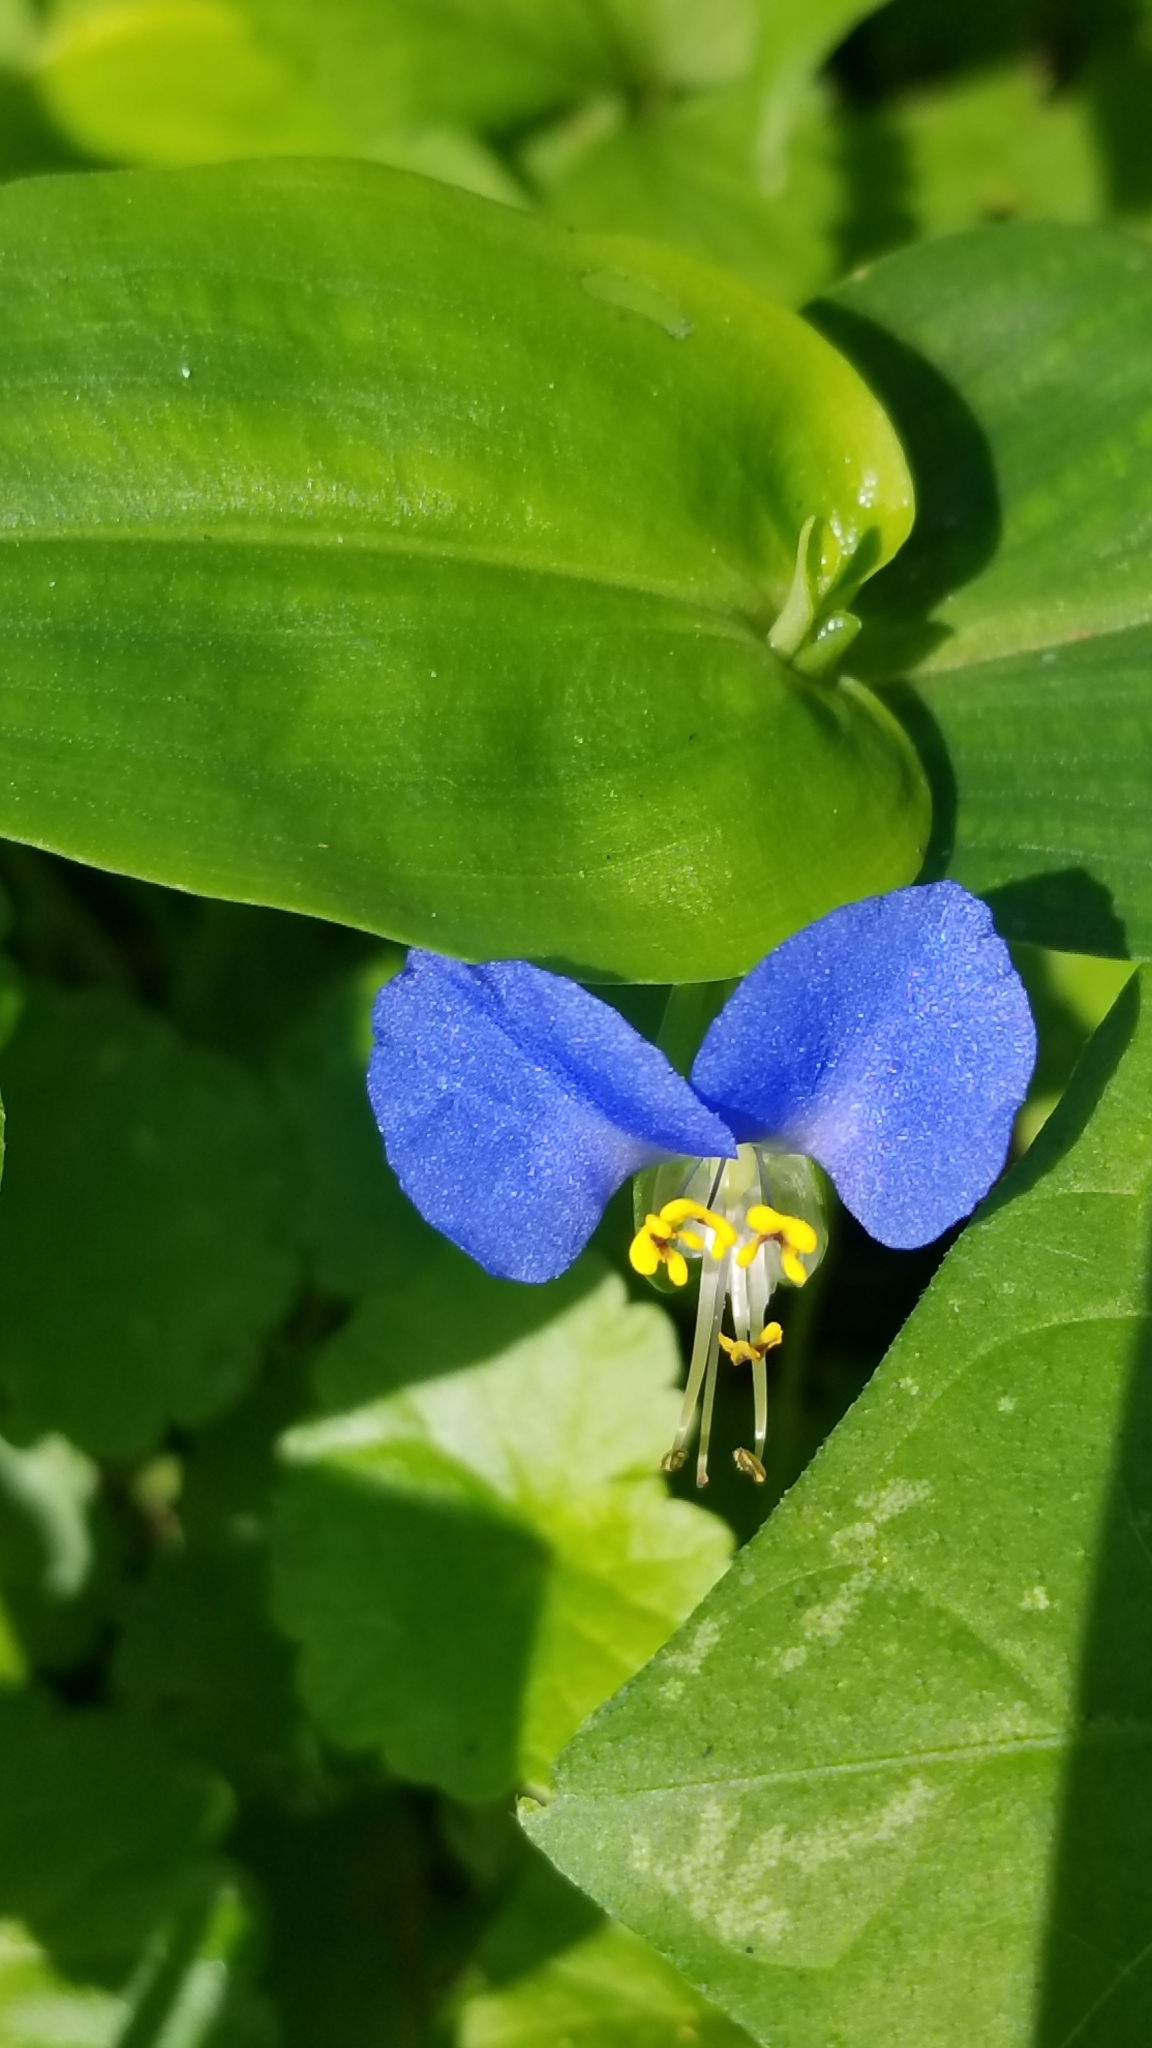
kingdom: Plantae
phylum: Tracheophyta
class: Liliopsida
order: Commelinales
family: Commelinaceae
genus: Commelina
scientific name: Commelina communis
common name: Asiatic dayflower
